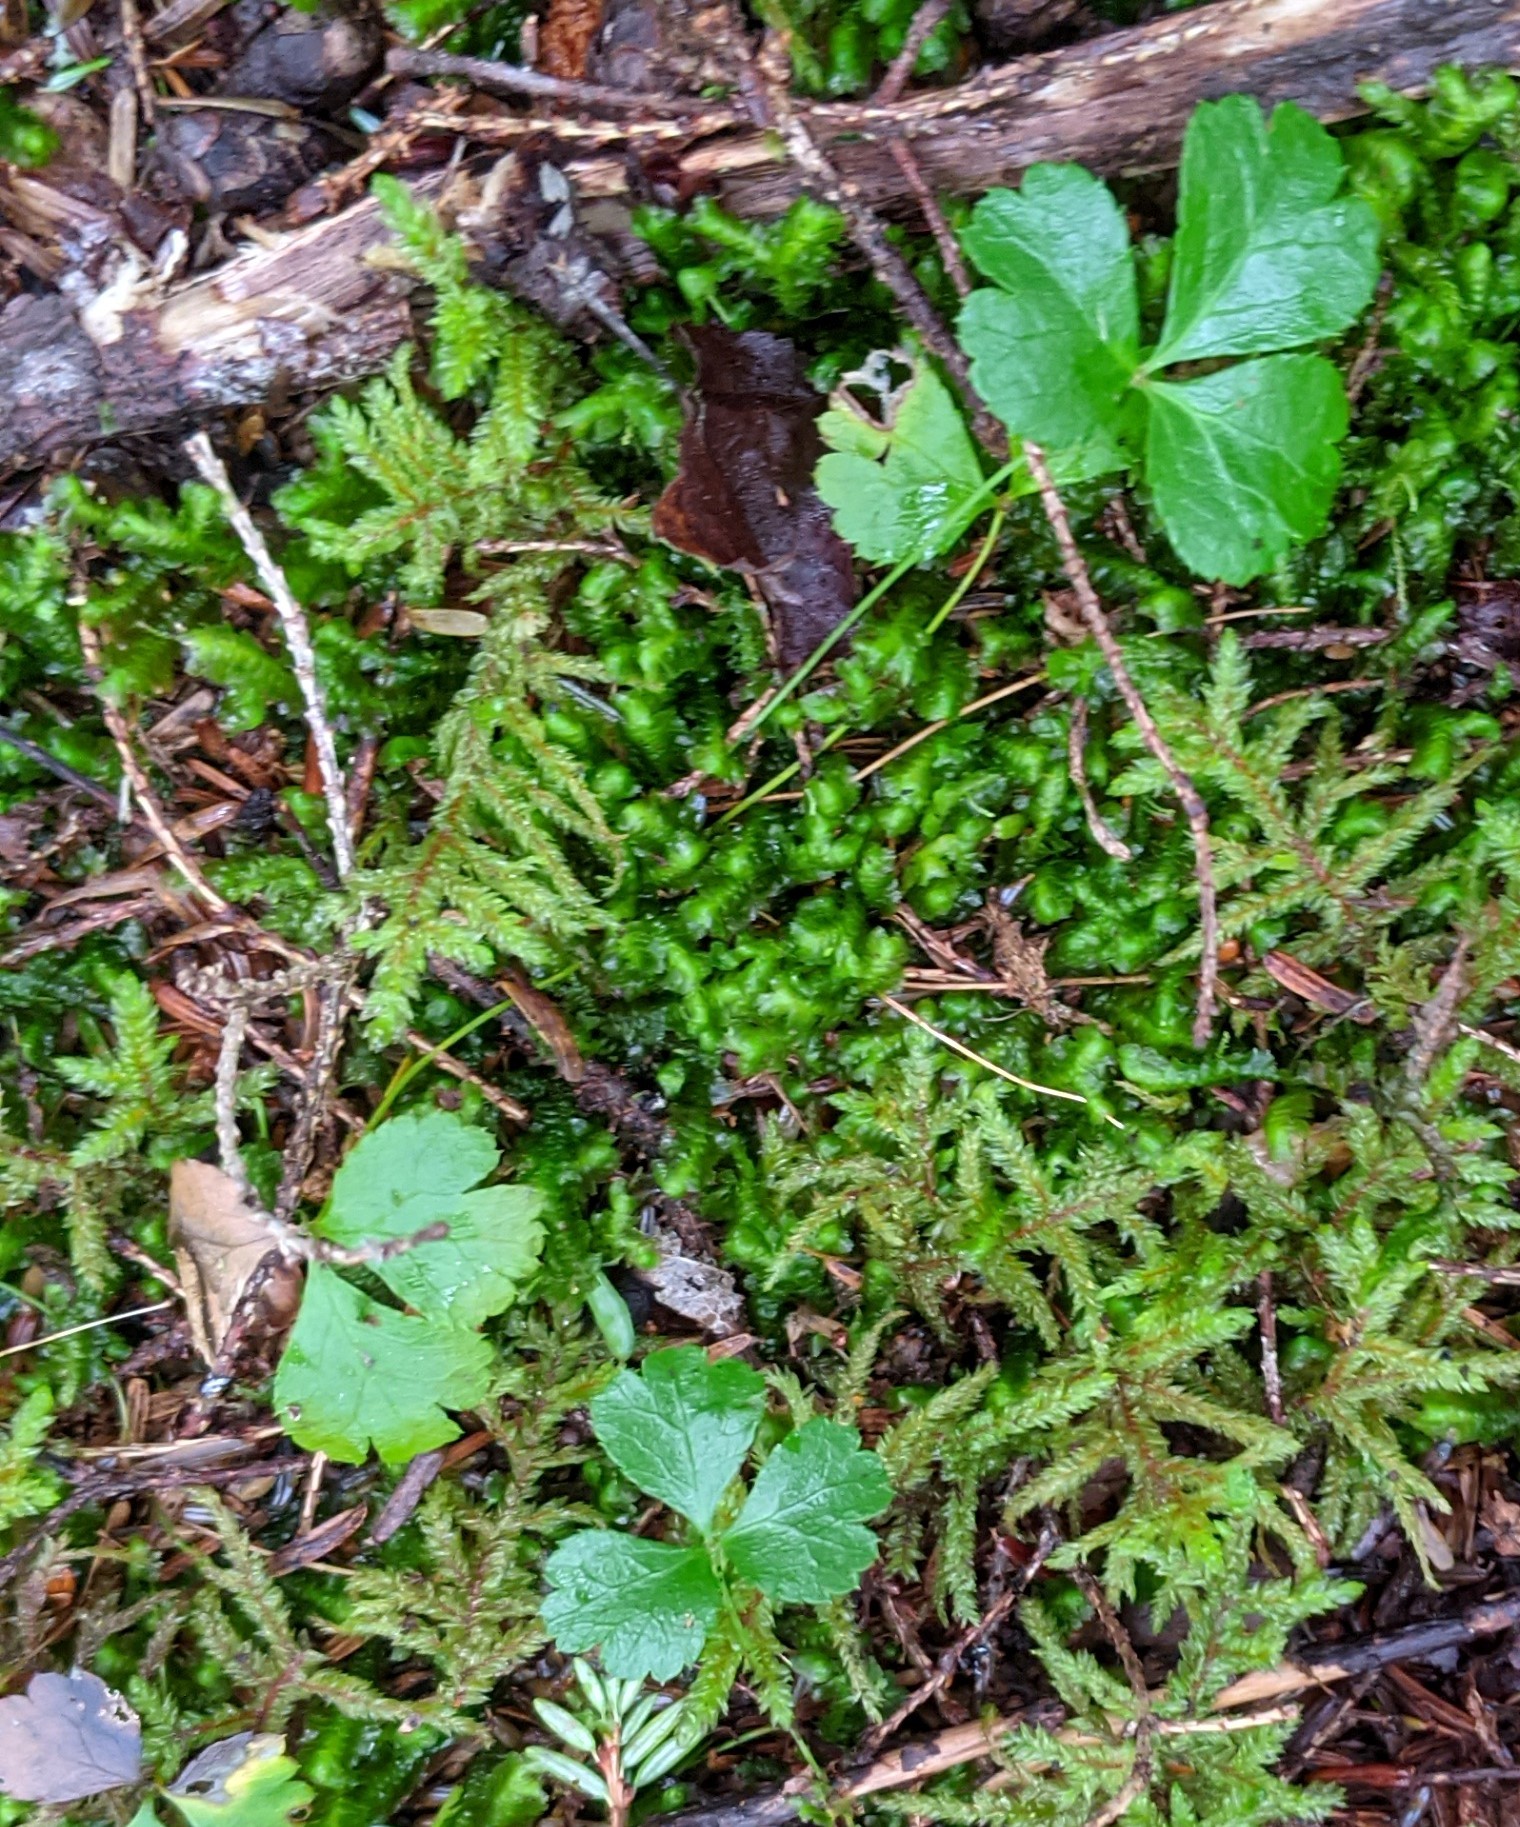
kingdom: Plantae
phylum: Tracheophyta
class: Magnoliopsida
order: Ranunculales
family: Ranunculaceae
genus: Coptis
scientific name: Coptis trifolia
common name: Canker-root
